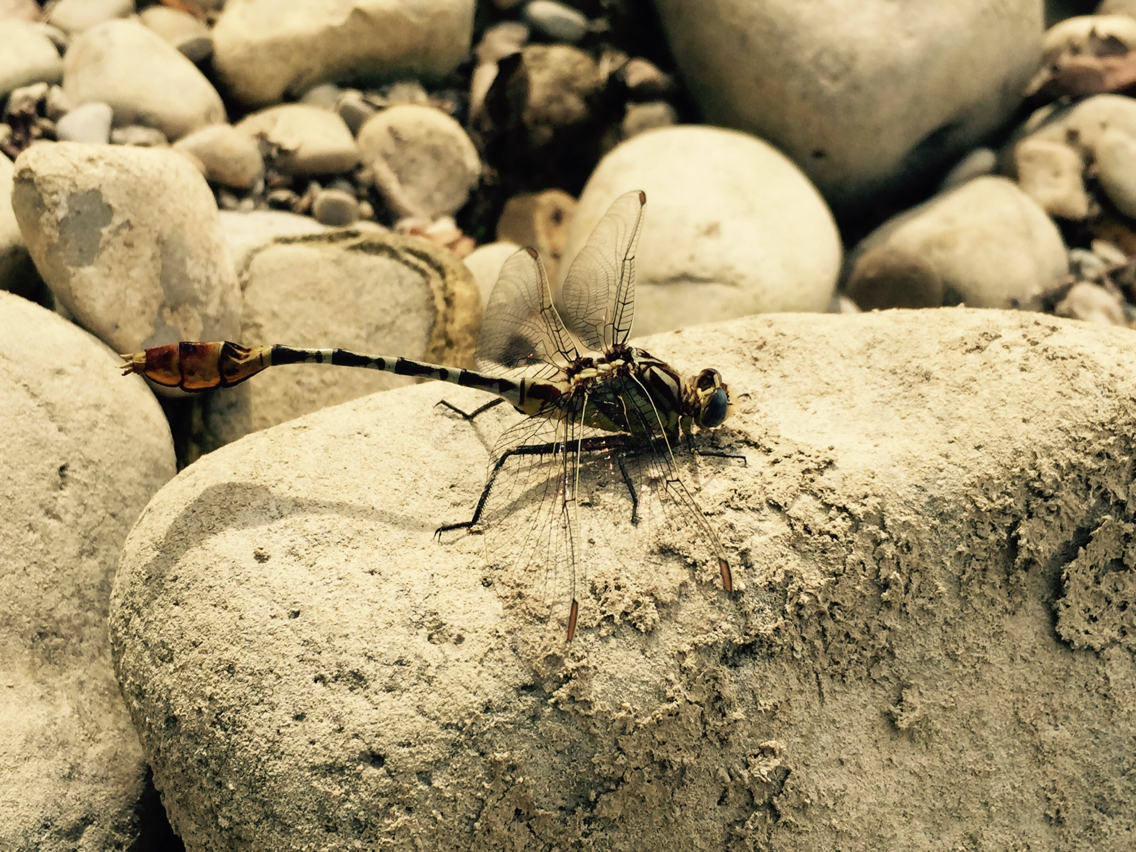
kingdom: Animalia
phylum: Arthropoda
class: Insecta
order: Odonata
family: Gomphidae
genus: Dromogomphus
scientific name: Dromogomphus spoliatus
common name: Flag-tailed spinyleg
